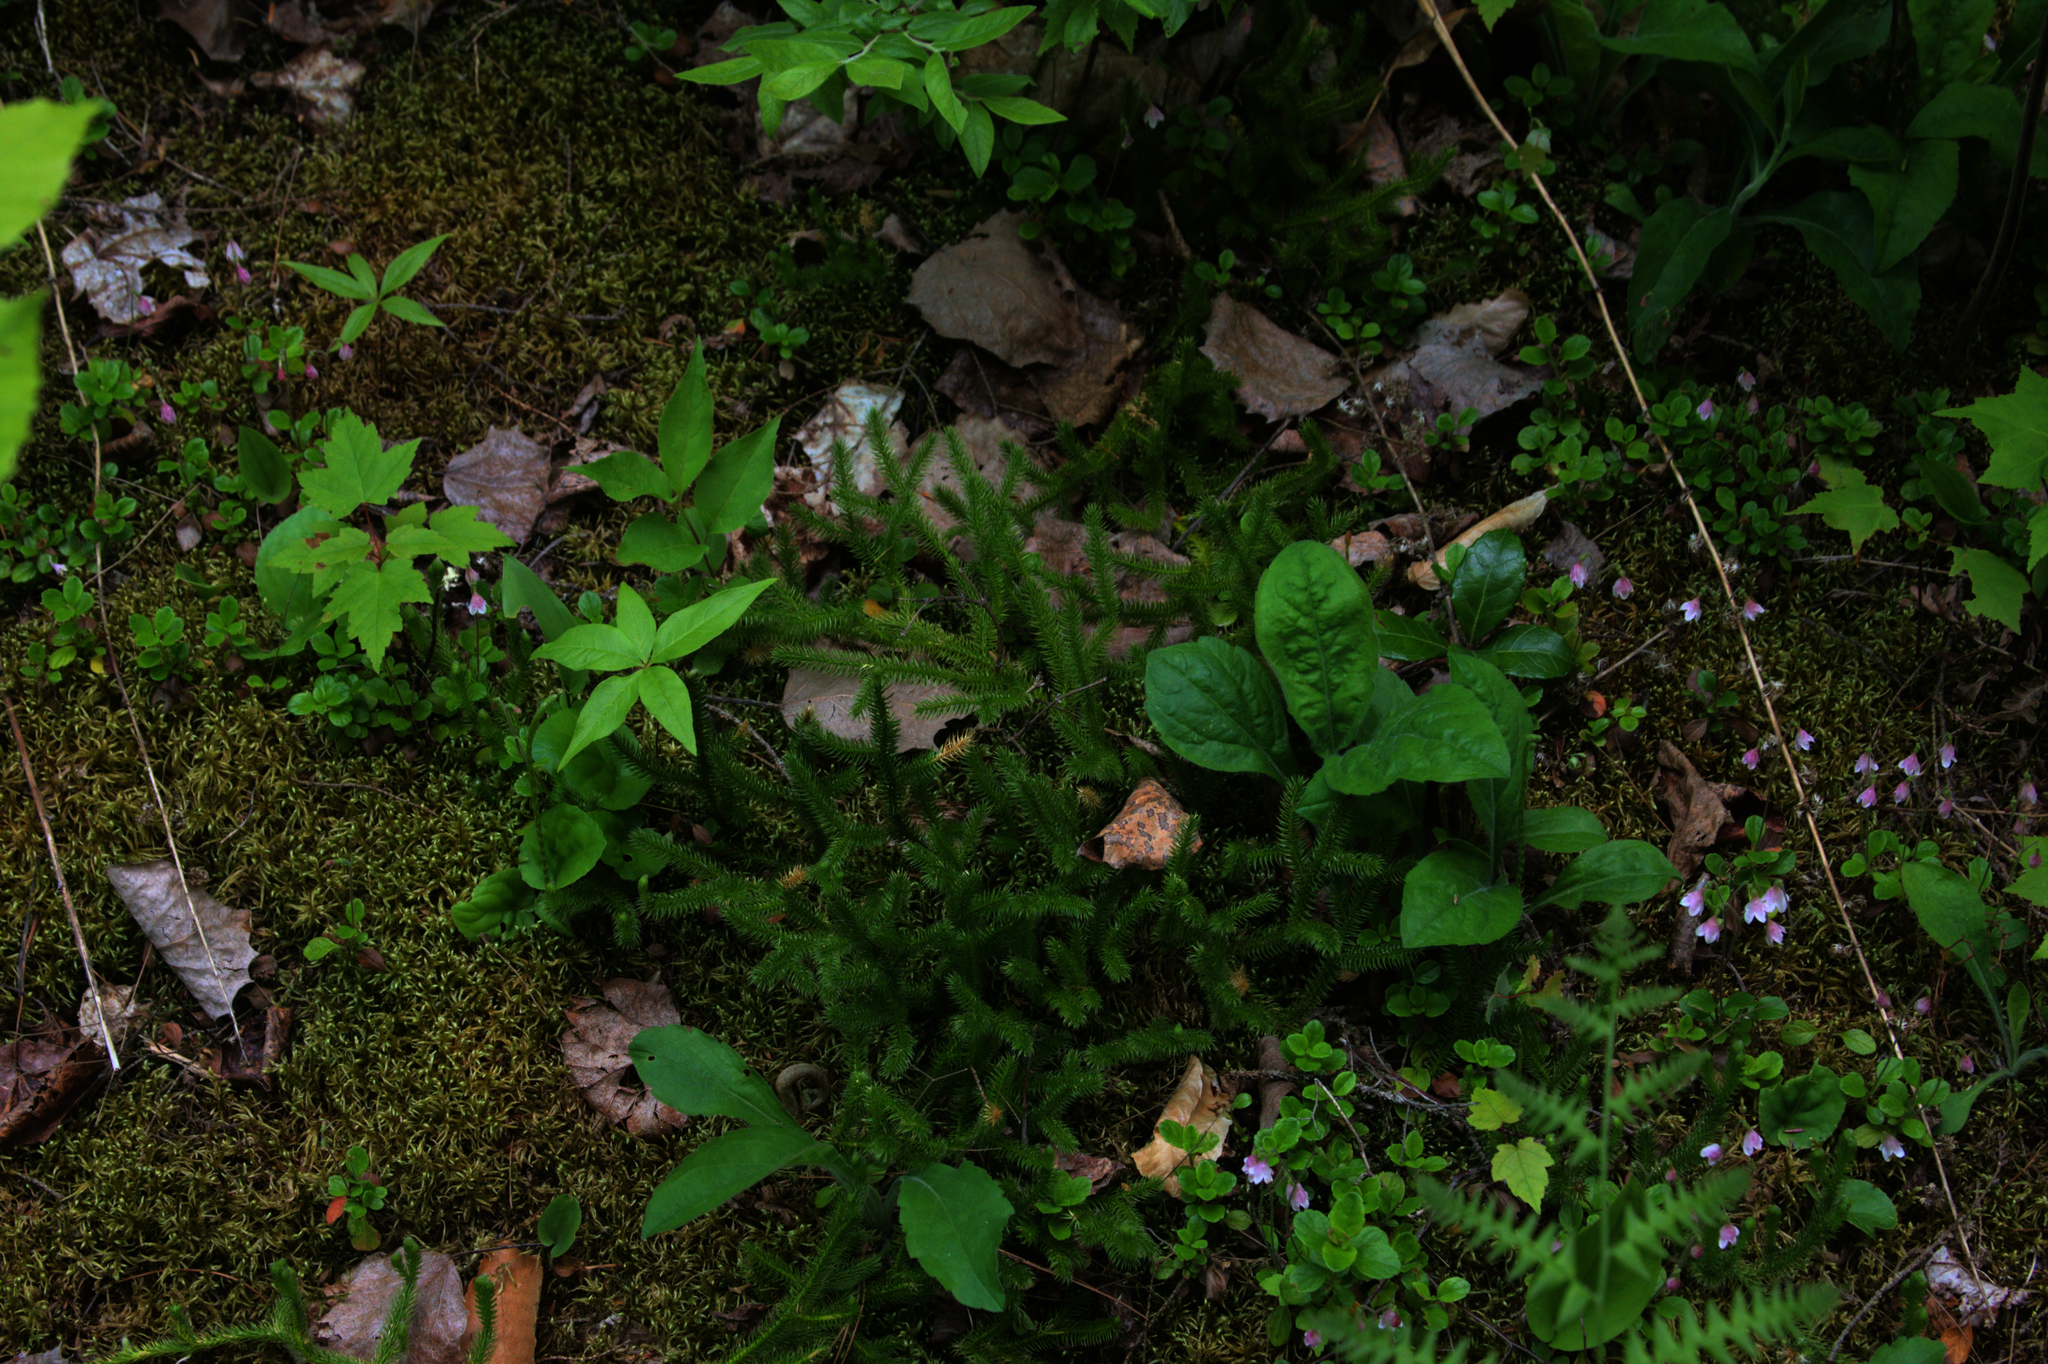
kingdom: Plantae
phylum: Tracheophyta
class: Magnoliopsida
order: Ericales
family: Primulaceae
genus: Lysimachia
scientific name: Lysimachia borealis
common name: American starflower
